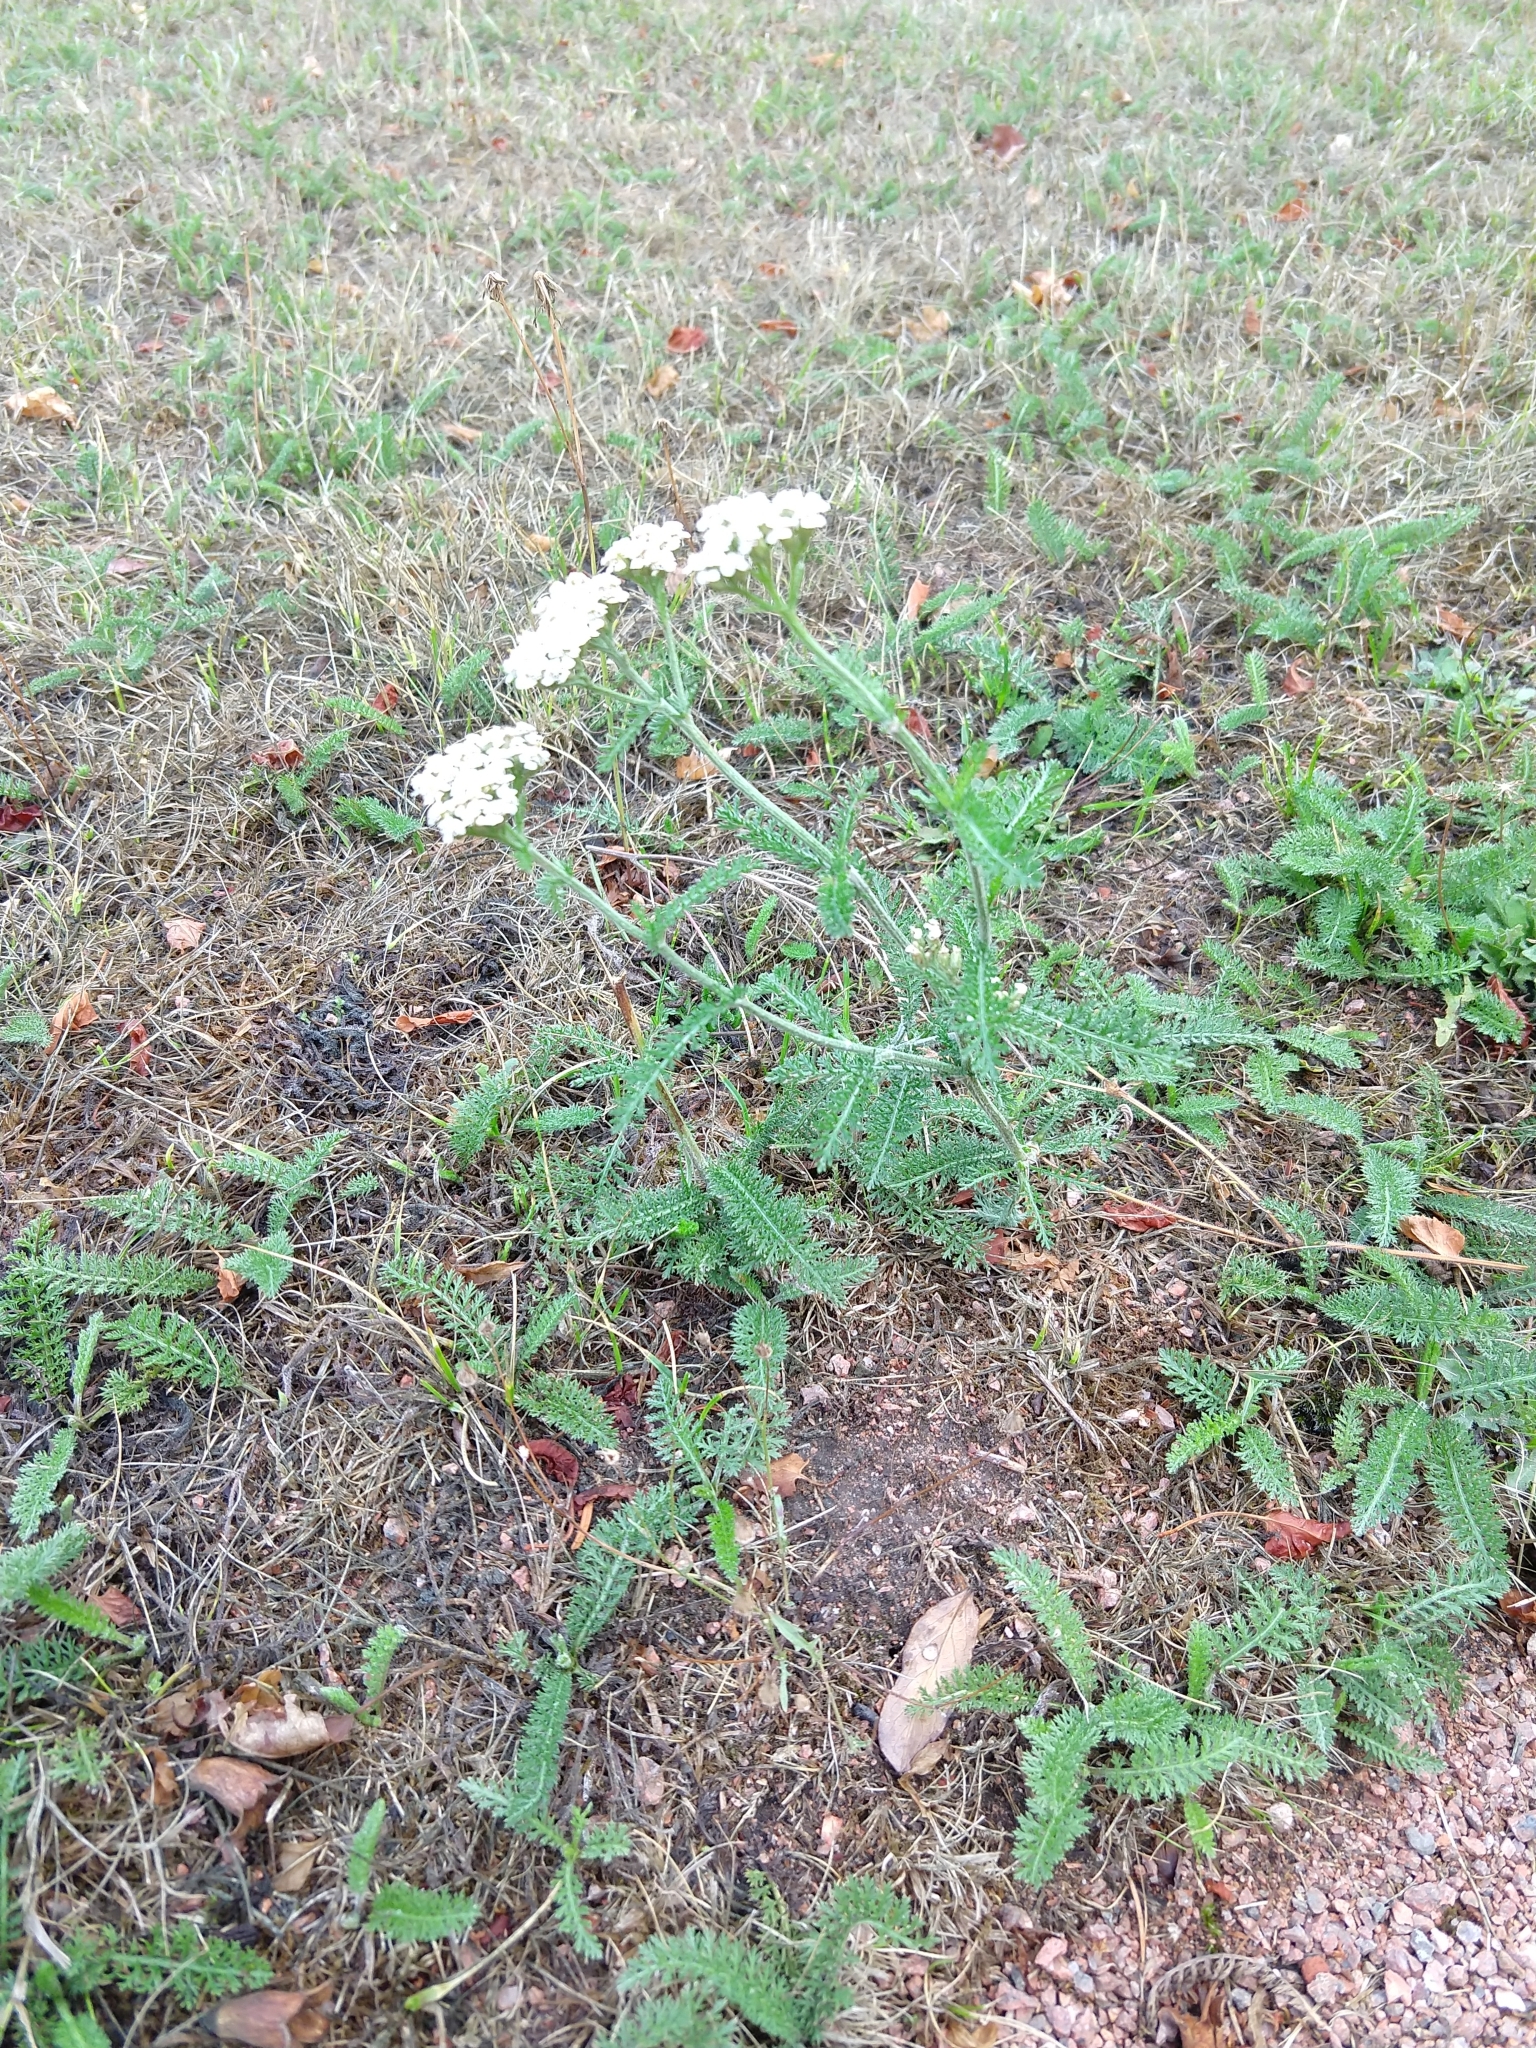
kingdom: Plantae
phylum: Tracheophyta
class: Magnoliopsida
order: Asterales
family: Asteraceae
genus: Achillea
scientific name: Achillea millefolium
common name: Yarrow
